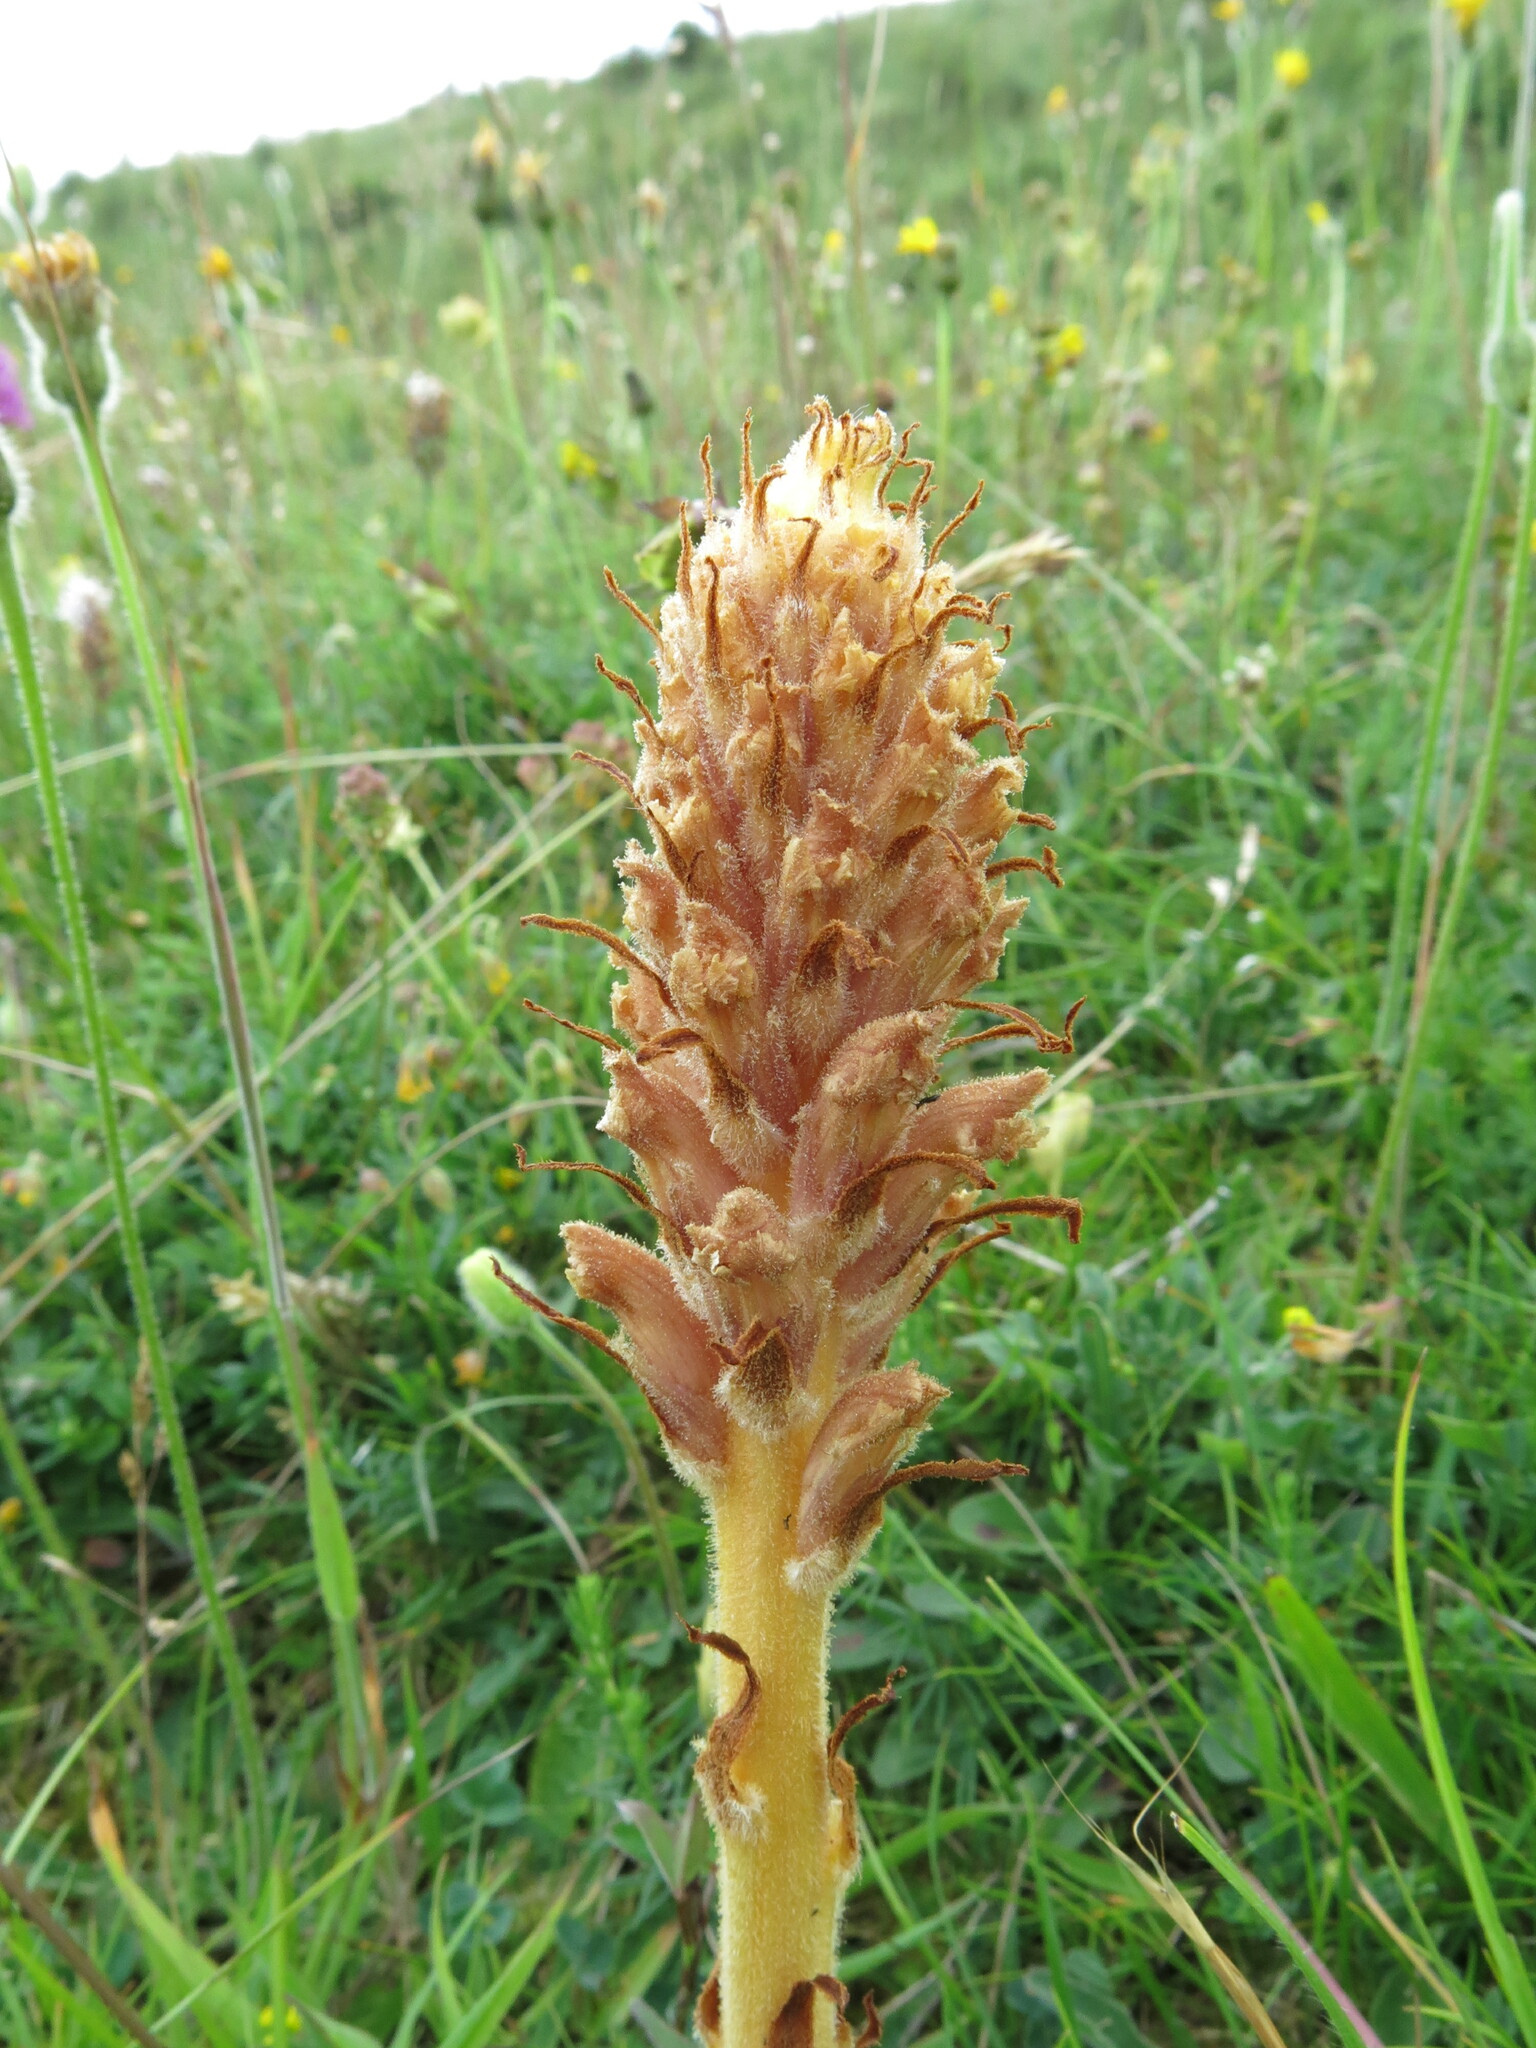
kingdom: Plantae
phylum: Tracheophyta
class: Magnoliopsida
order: Lamiales
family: Orobanchaceae
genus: Orobanche
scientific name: Orobanche elatior
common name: Knapweed broomrape
